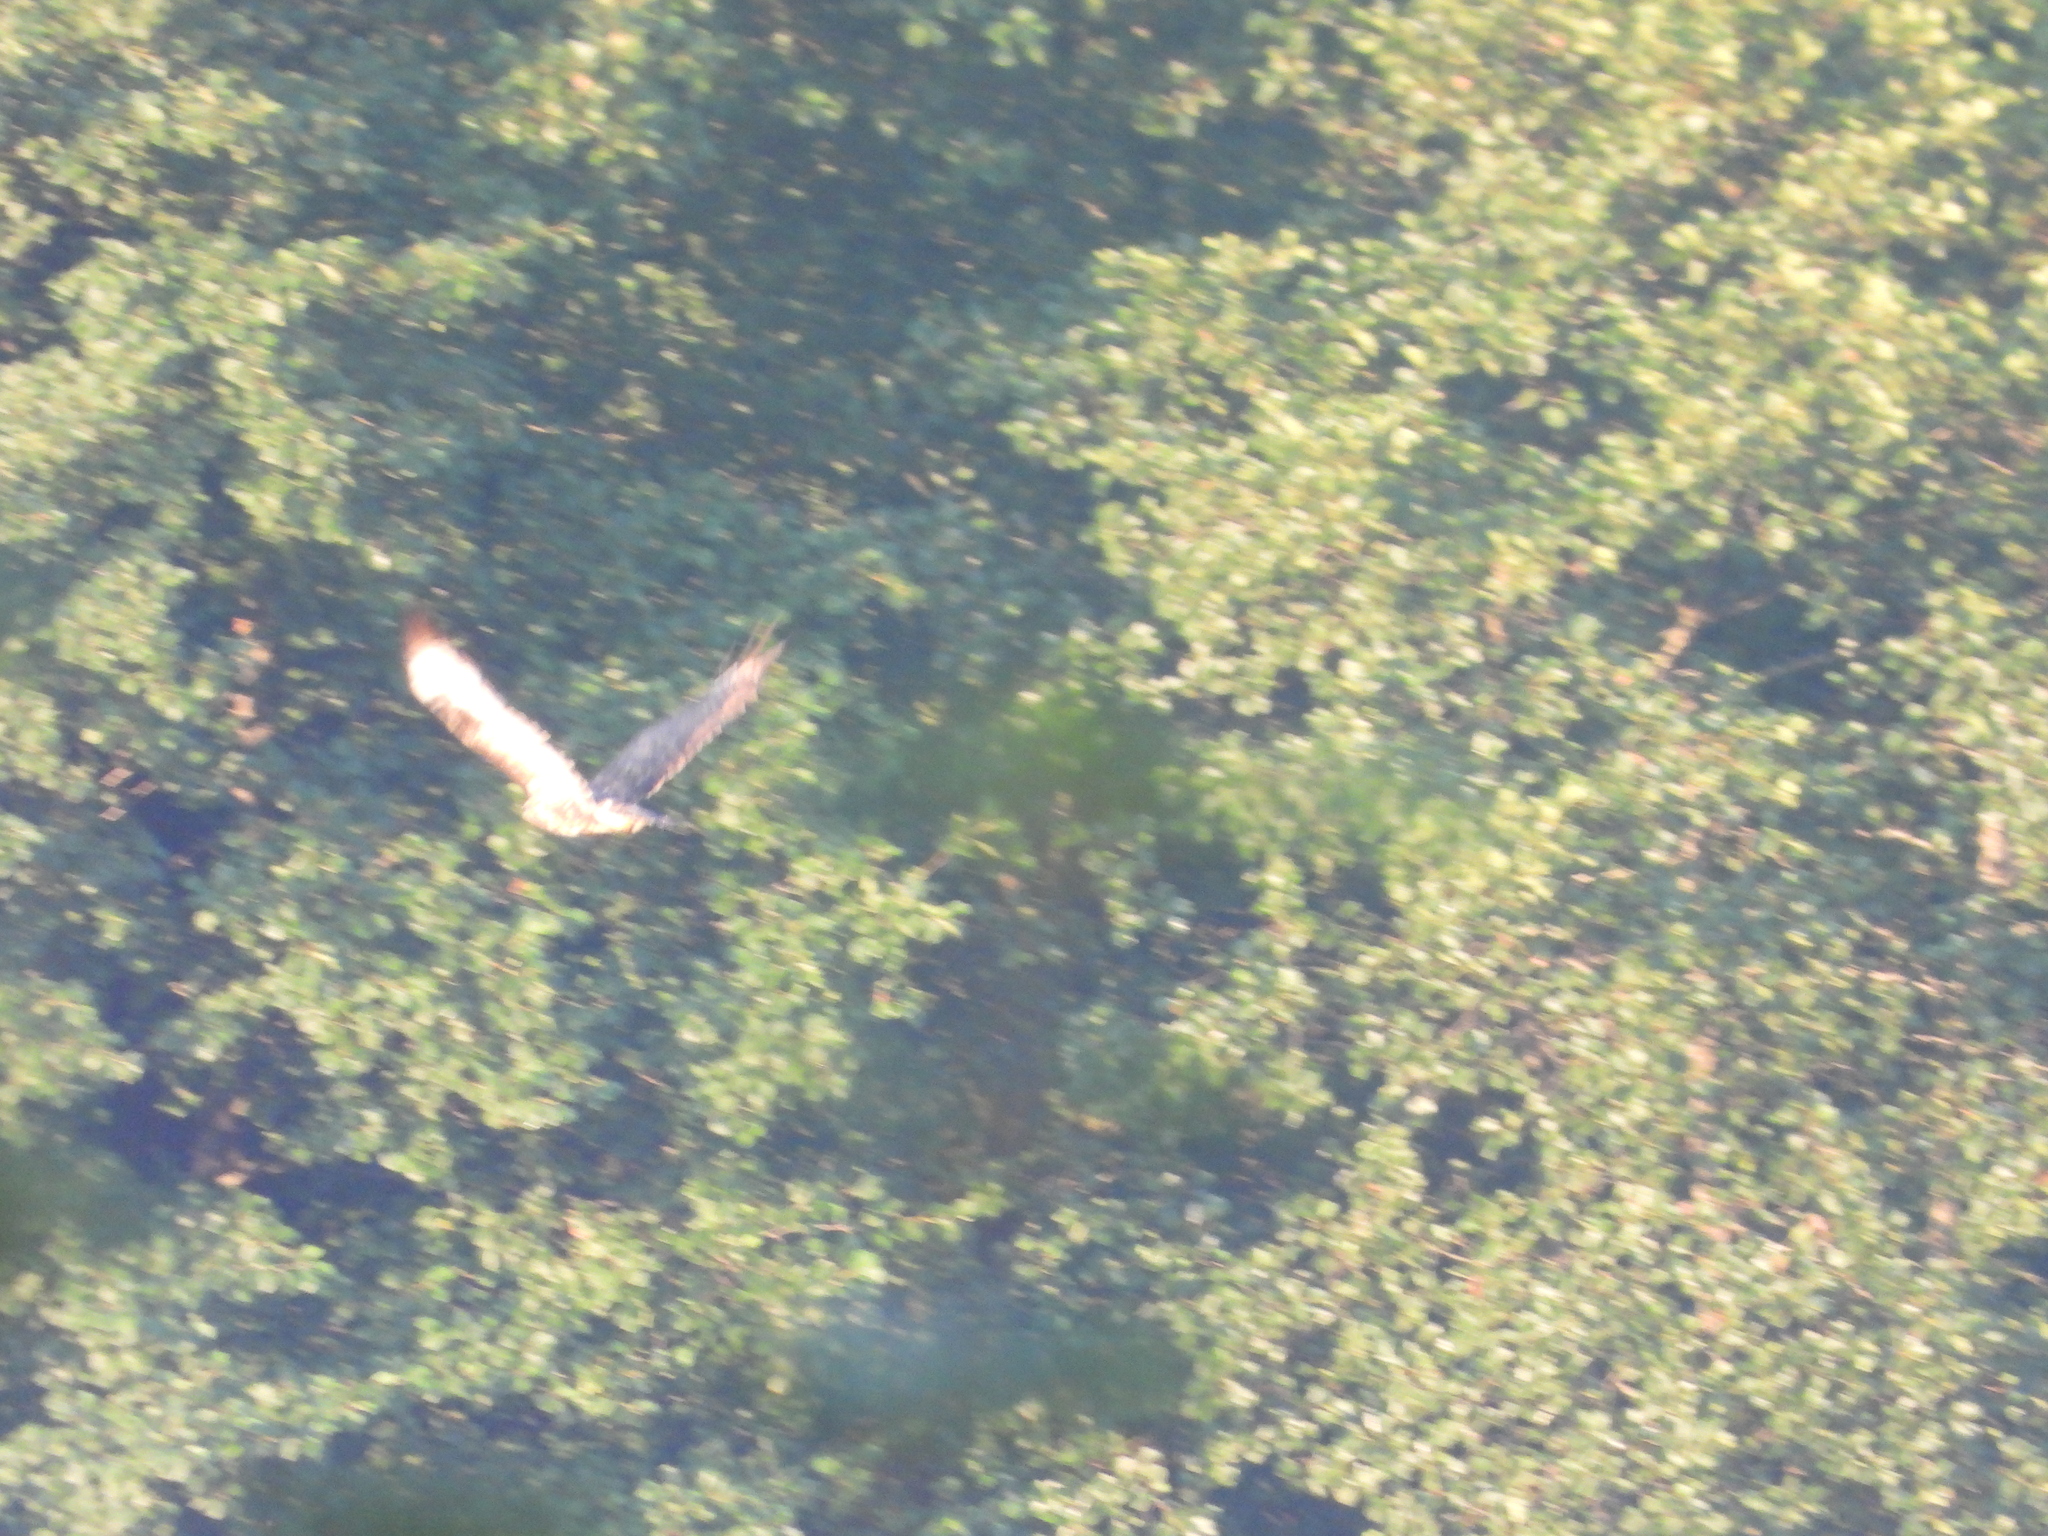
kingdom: Animalia
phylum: Chordata
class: Aves
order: Accipitriformes
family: Accipitridae
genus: Buteo
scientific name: Buteo buteo
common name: Common buzzard
